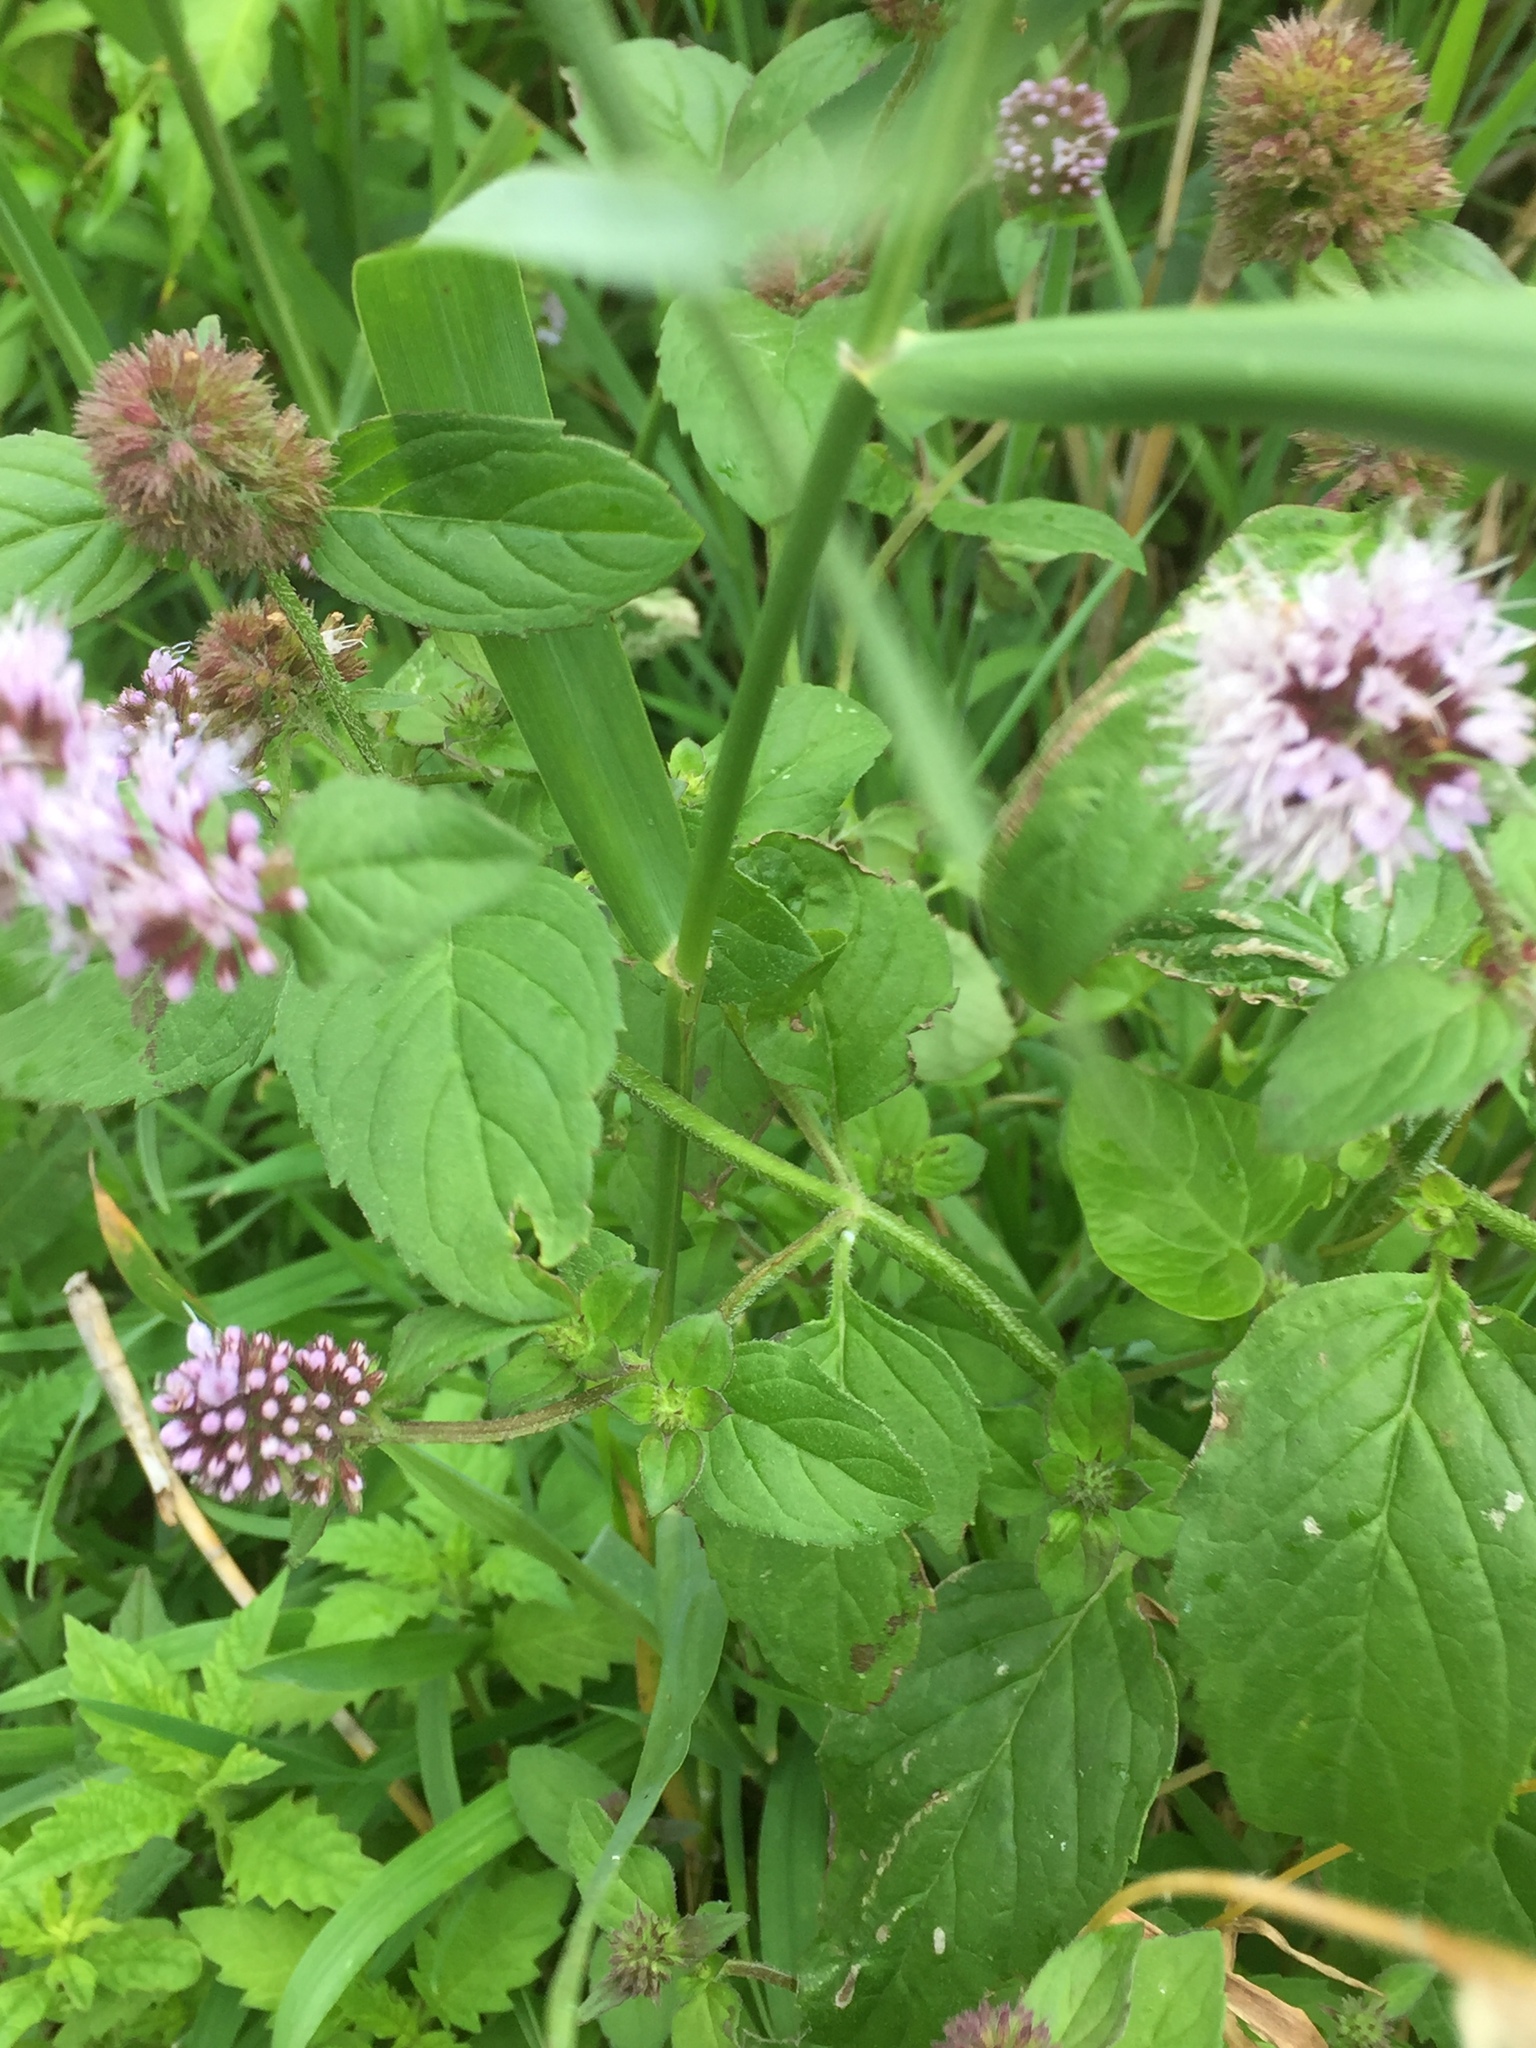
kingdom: Plantae
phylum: Tracheophyta
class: Magnoliopsida
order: Lamiales
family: Lamiaceae
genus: Mentha
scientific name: Mentha aquatica
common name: Water mint
